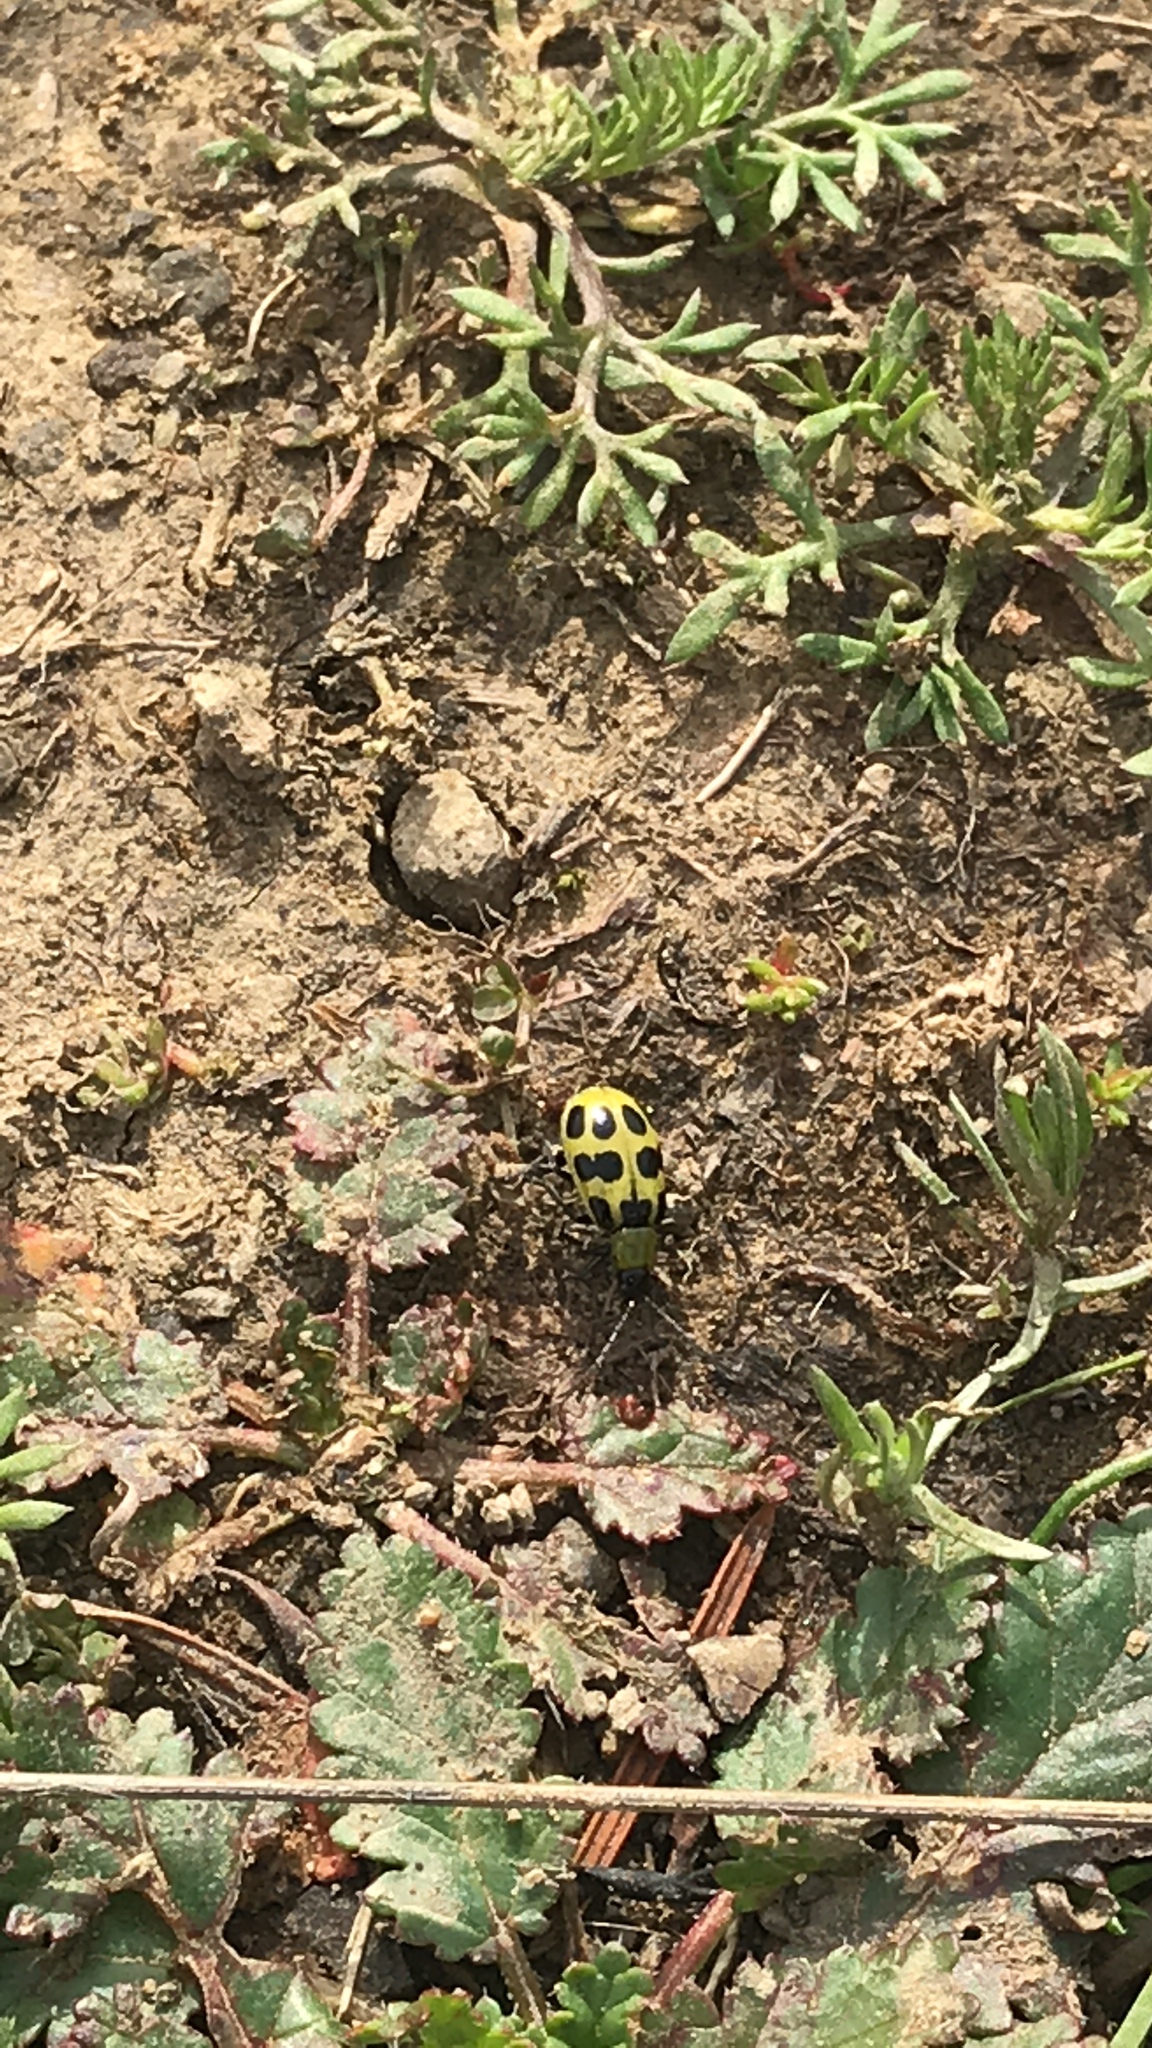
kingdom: Animalia
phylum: Arthropoda
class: Insecta
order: Coleoptera
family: Chrysomelidae
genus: Diabrotica
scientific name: Diabrotica undecimpunctata
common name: Spotted cucumber beetle
